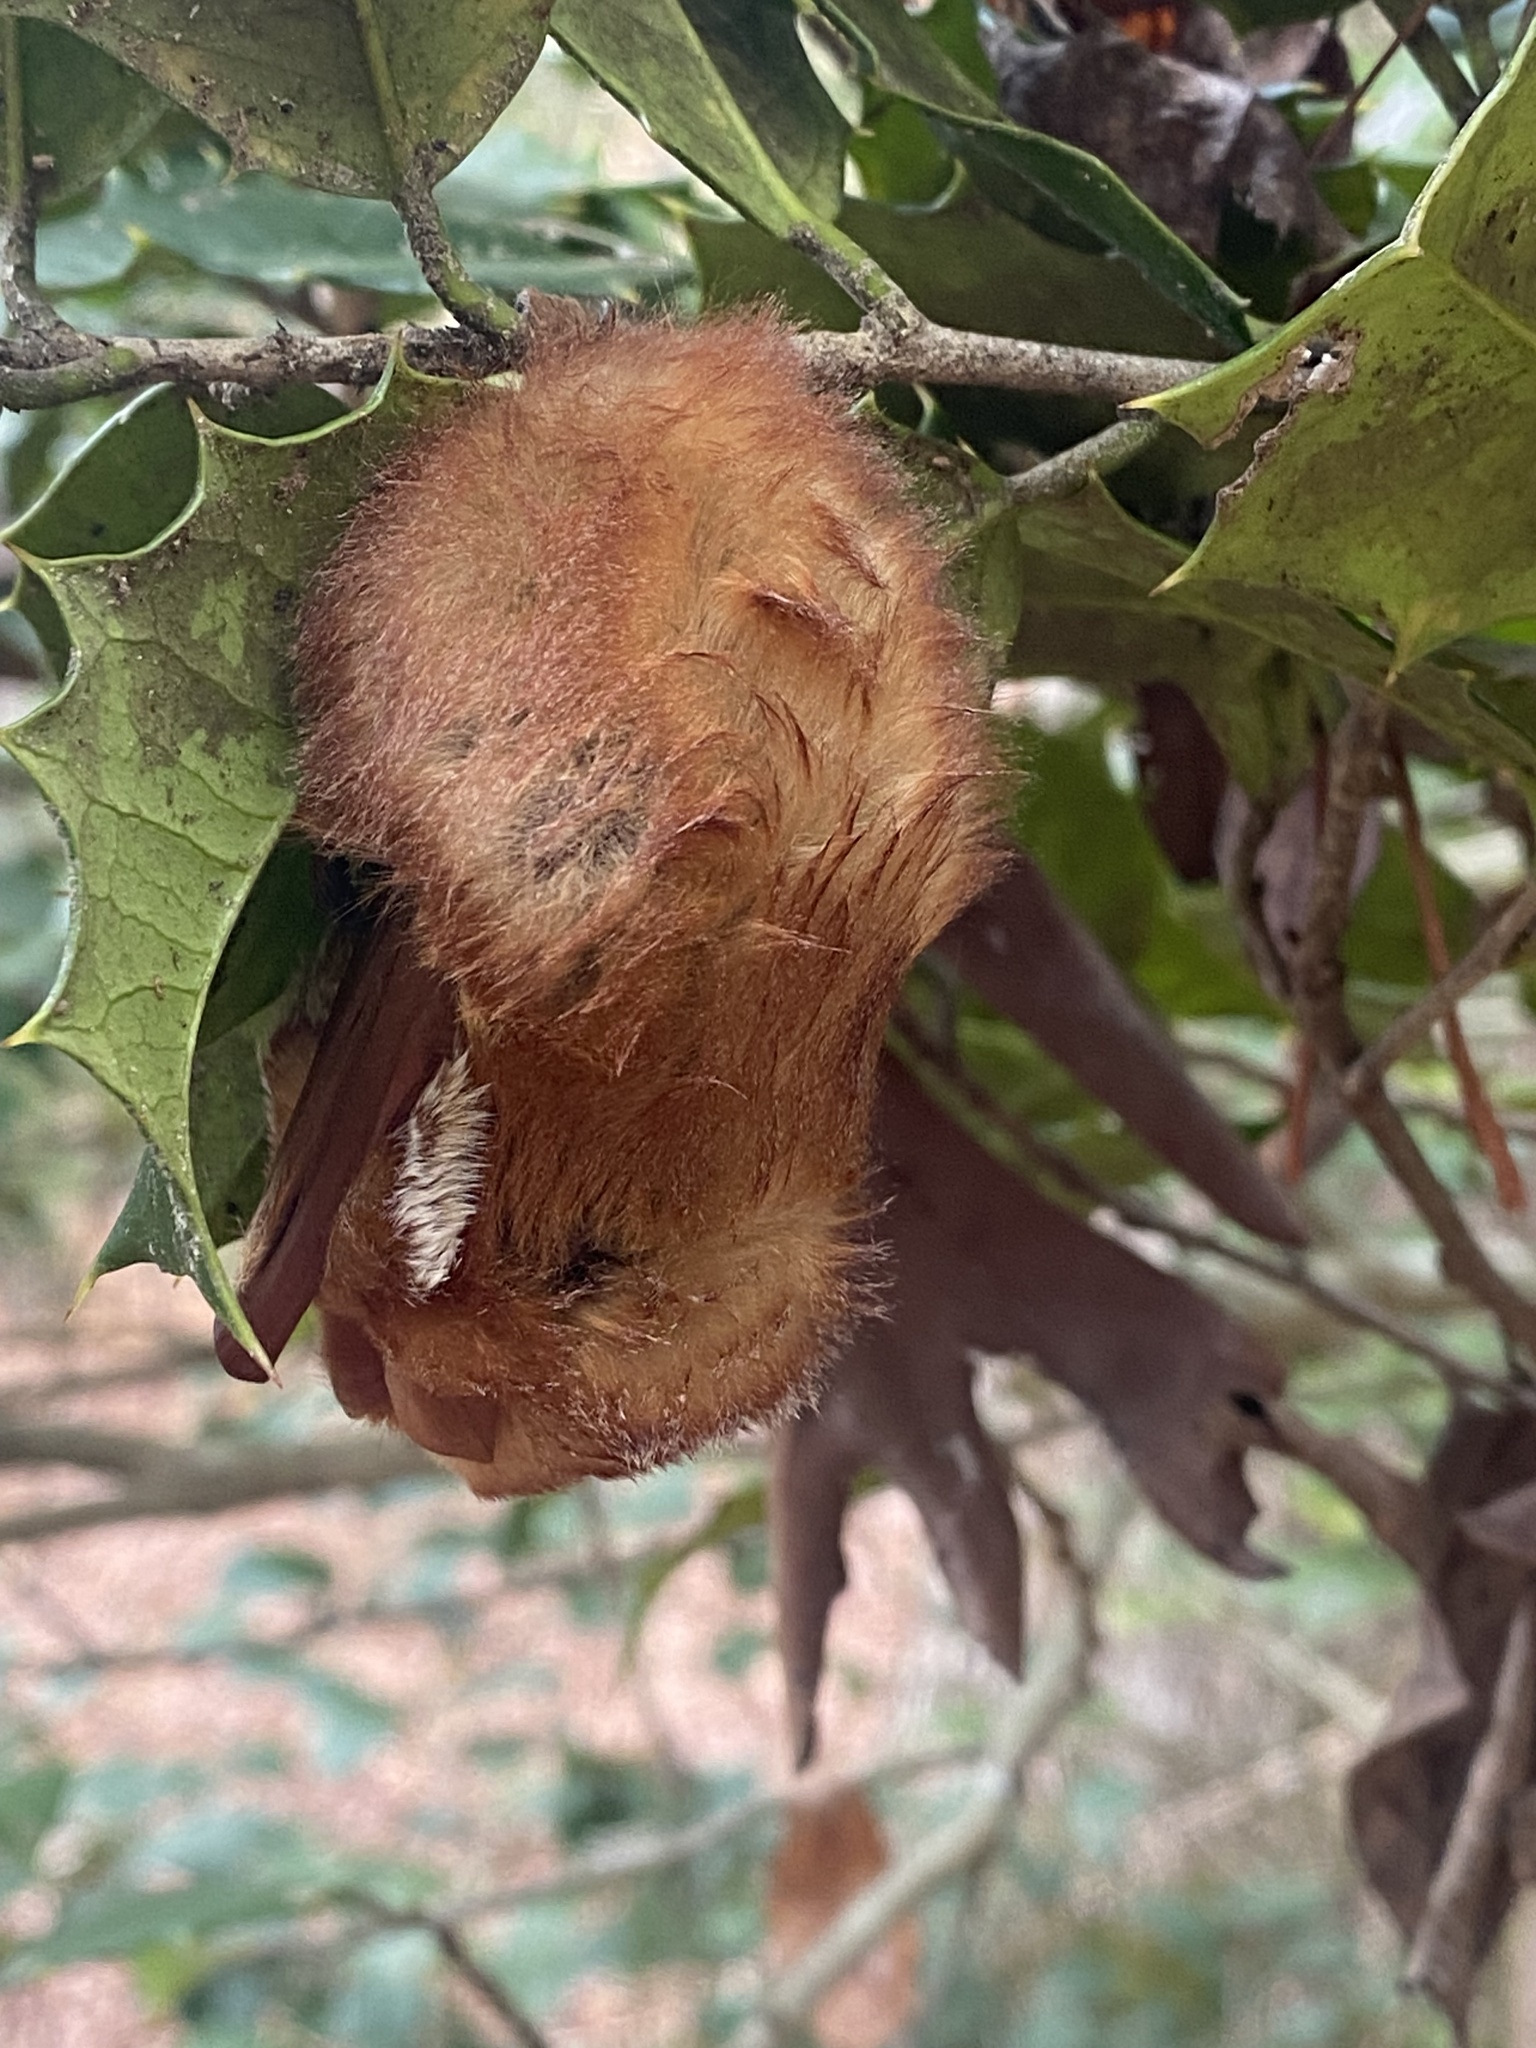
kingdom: Animalia
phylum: Chordata
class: Mammalia
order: Chiroptera
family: Vespertilionidae
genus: Lasiurus
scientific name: Lasiurus borealis
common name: Eastern red bat
